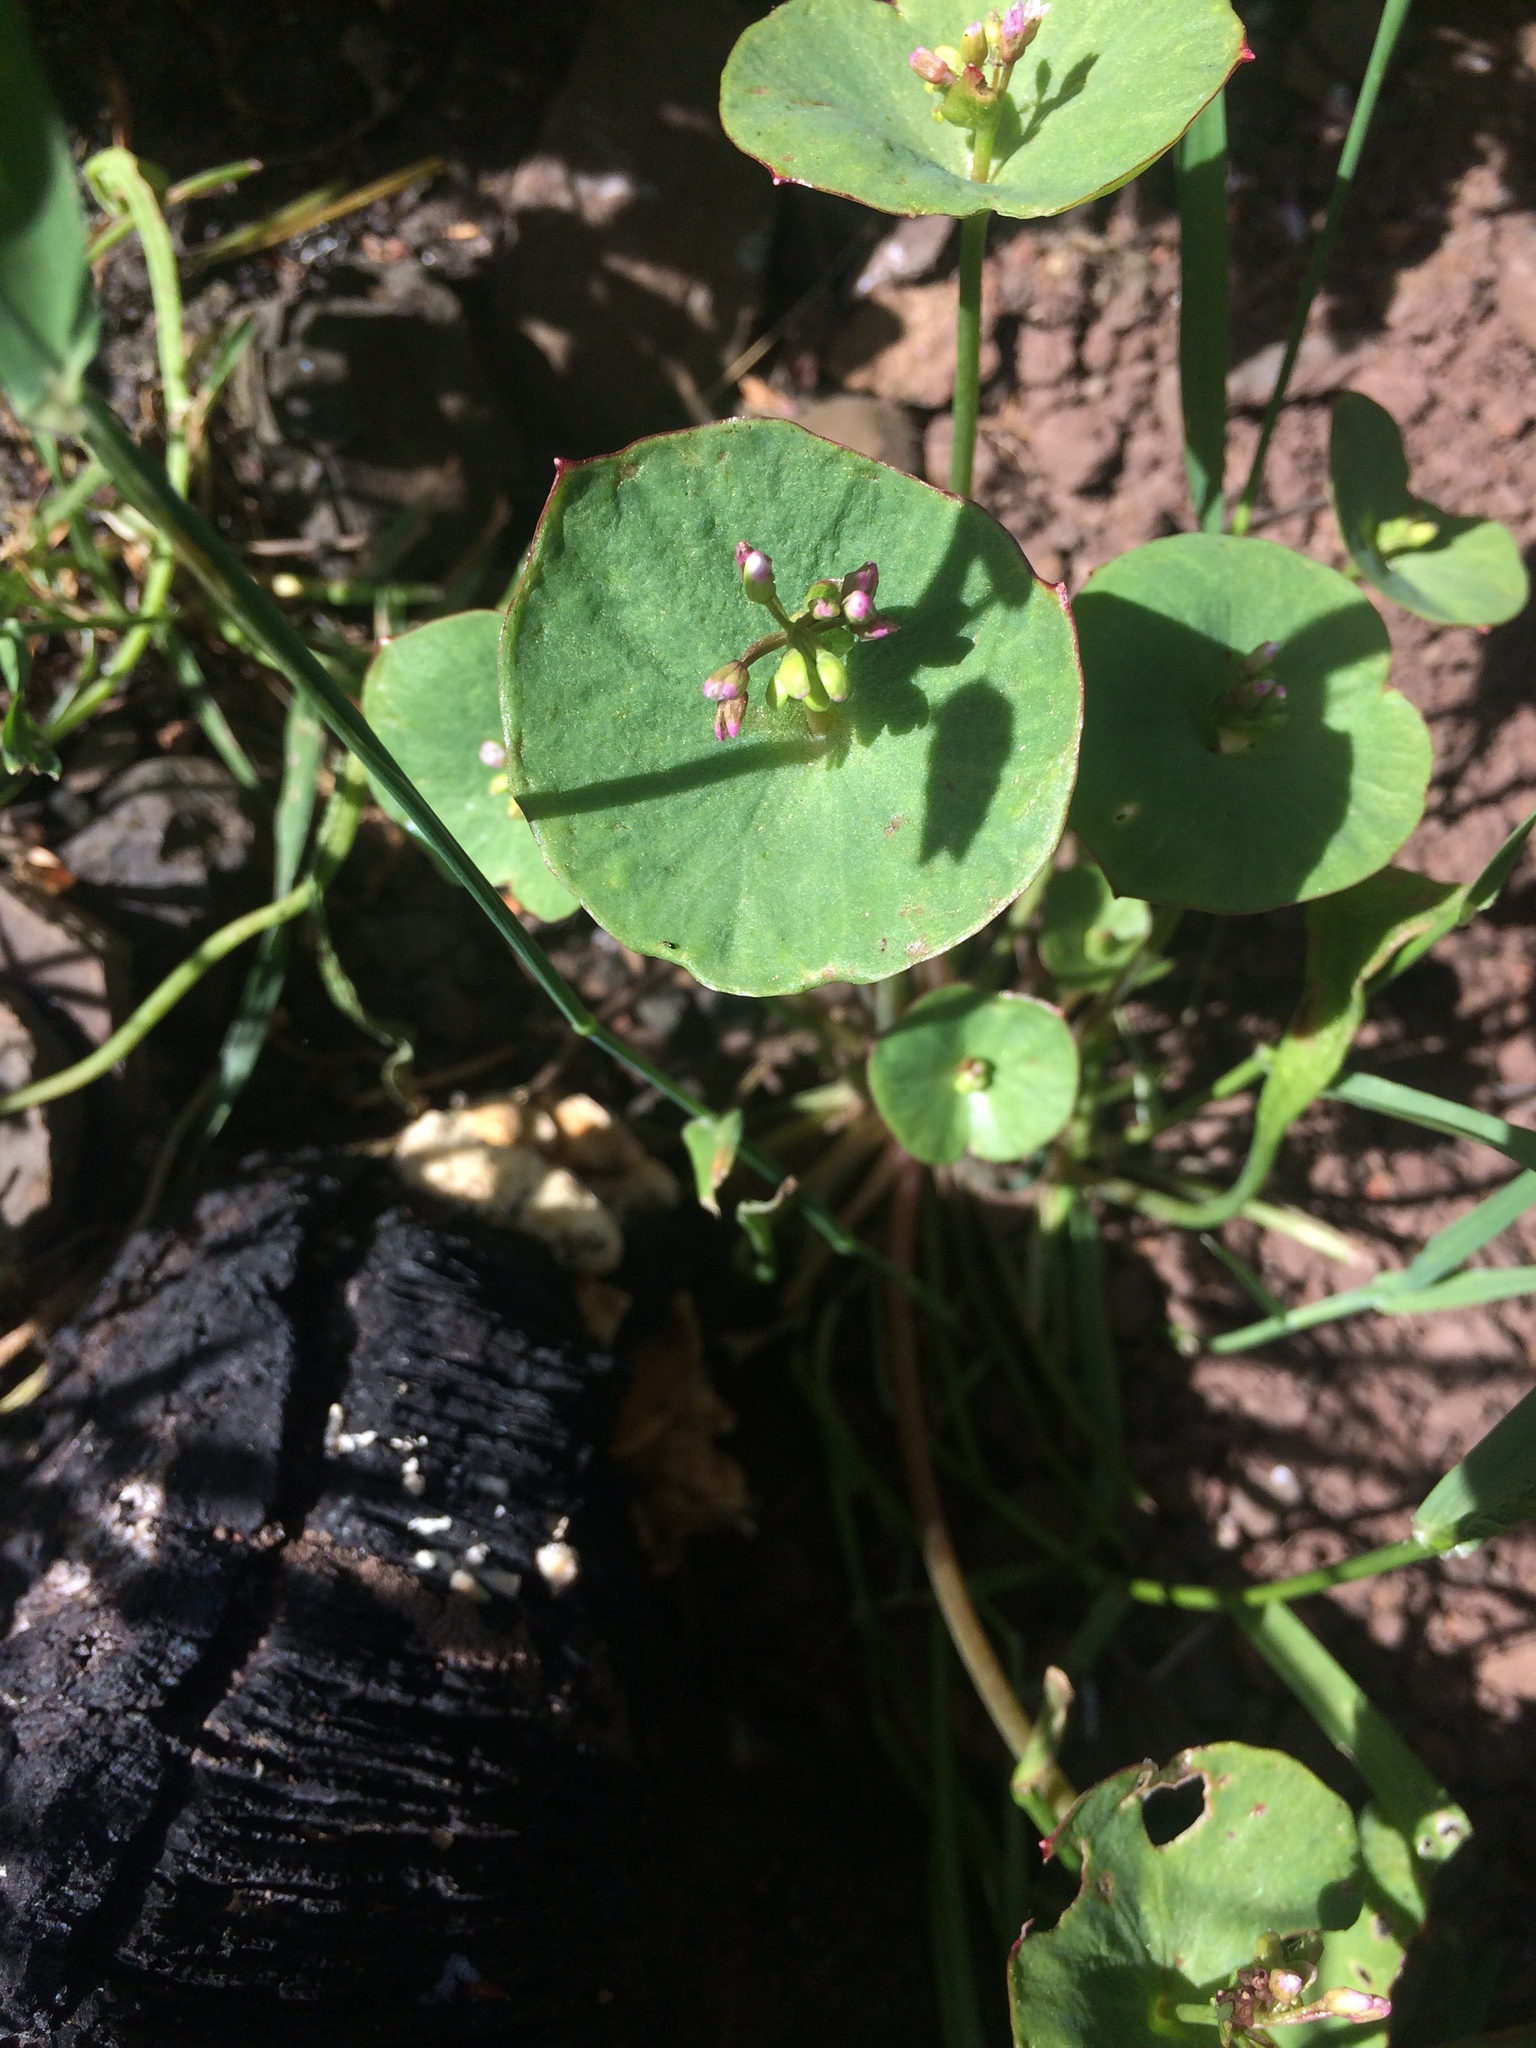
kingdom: Plantae
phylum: Tracheophyta
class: Magnoliopsida
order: Caryophyllales
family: Montiaceae
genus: Claytonia
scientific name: Claytonia perfoliata
